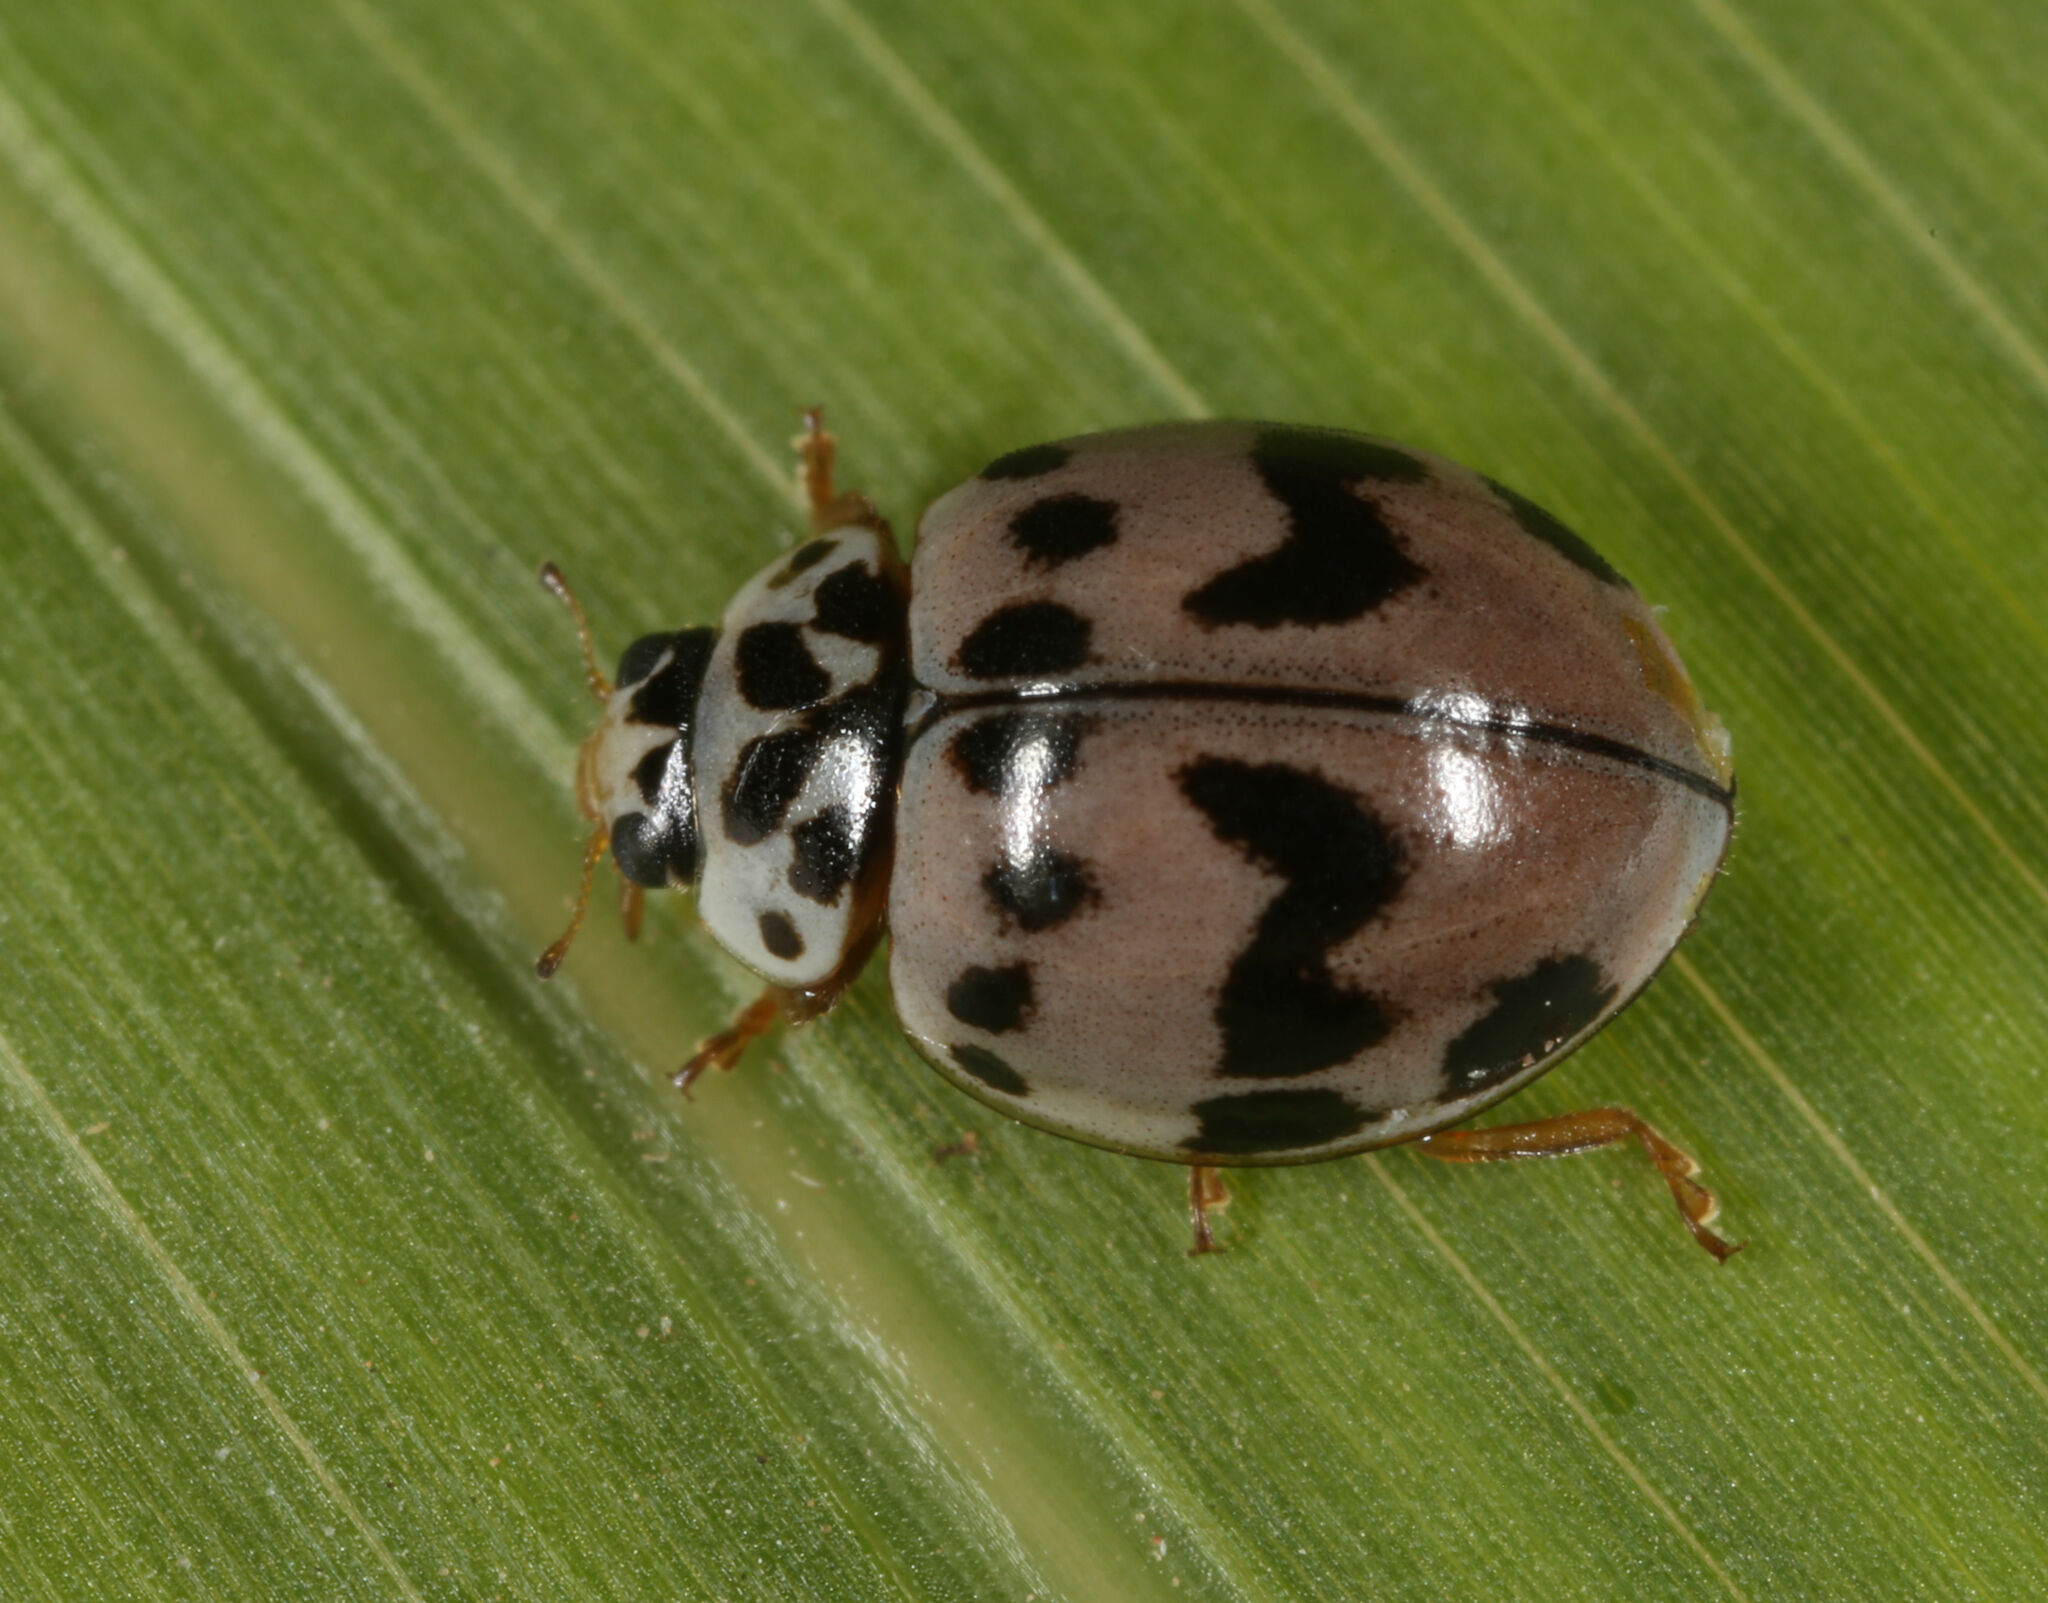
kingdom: Animalia
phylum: Arthropoda
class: Insecta
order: Coleoptera
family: Coccinellidae
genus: Olla
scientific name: Olla v-nigrum
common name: Ashy gray lady beetle
